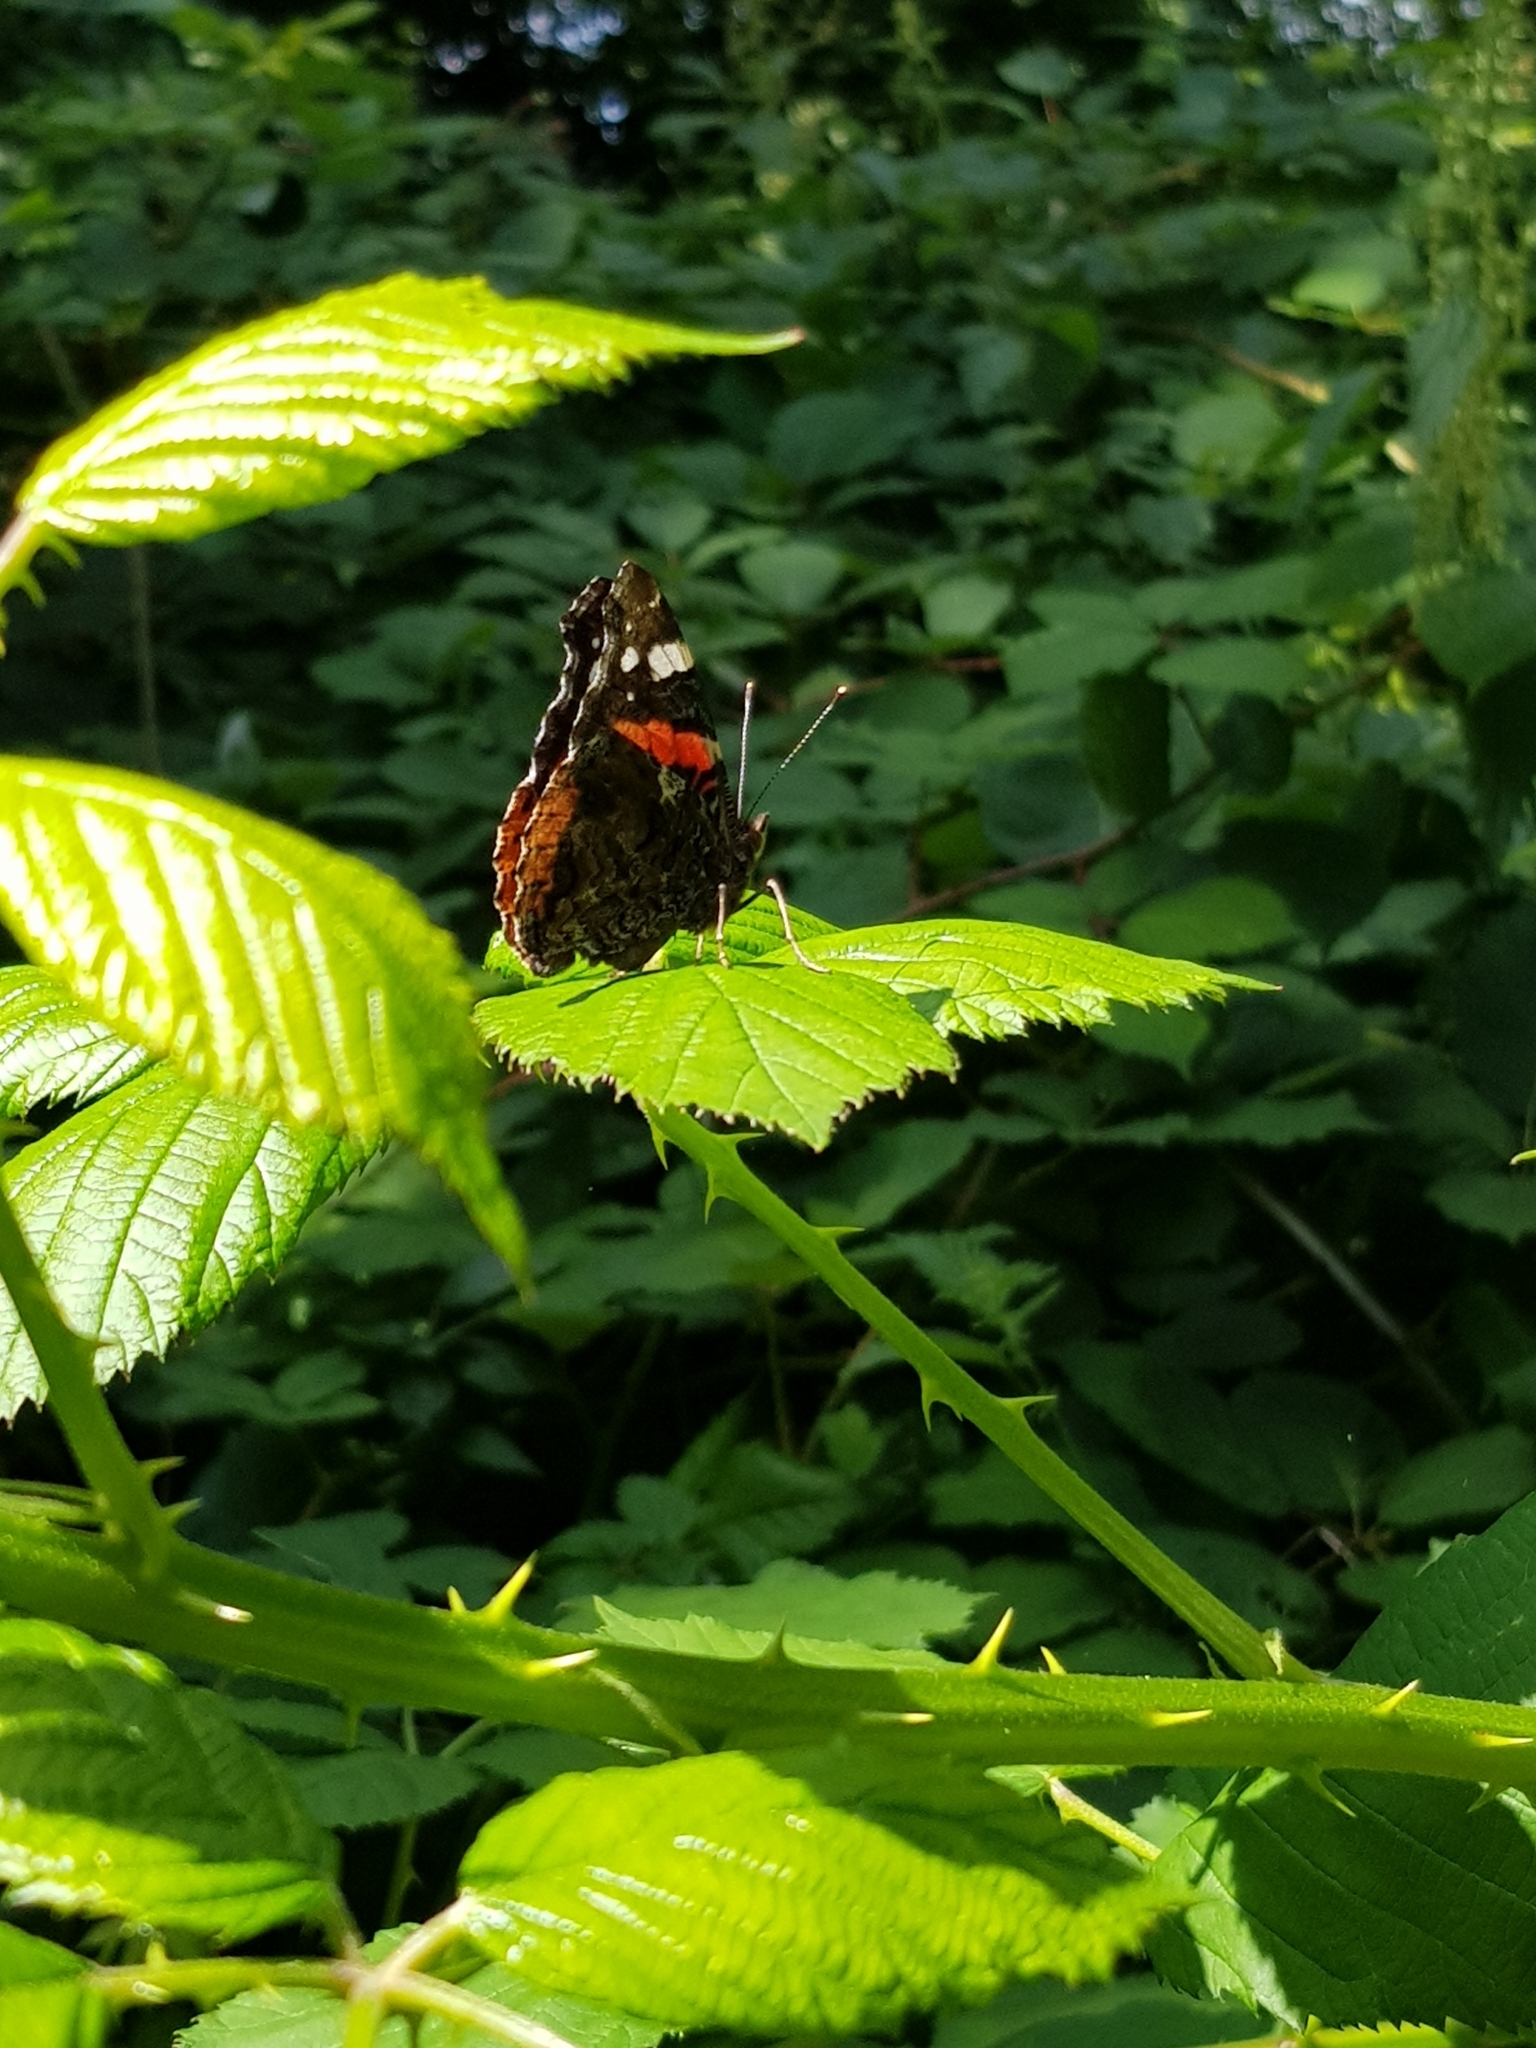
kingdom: Animalia
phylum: Arthropoda
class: Insecta
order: Lepidoptera
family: Nymphalidae
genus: Vanessa
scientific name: Vanessa atalanta
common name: Red admiral
